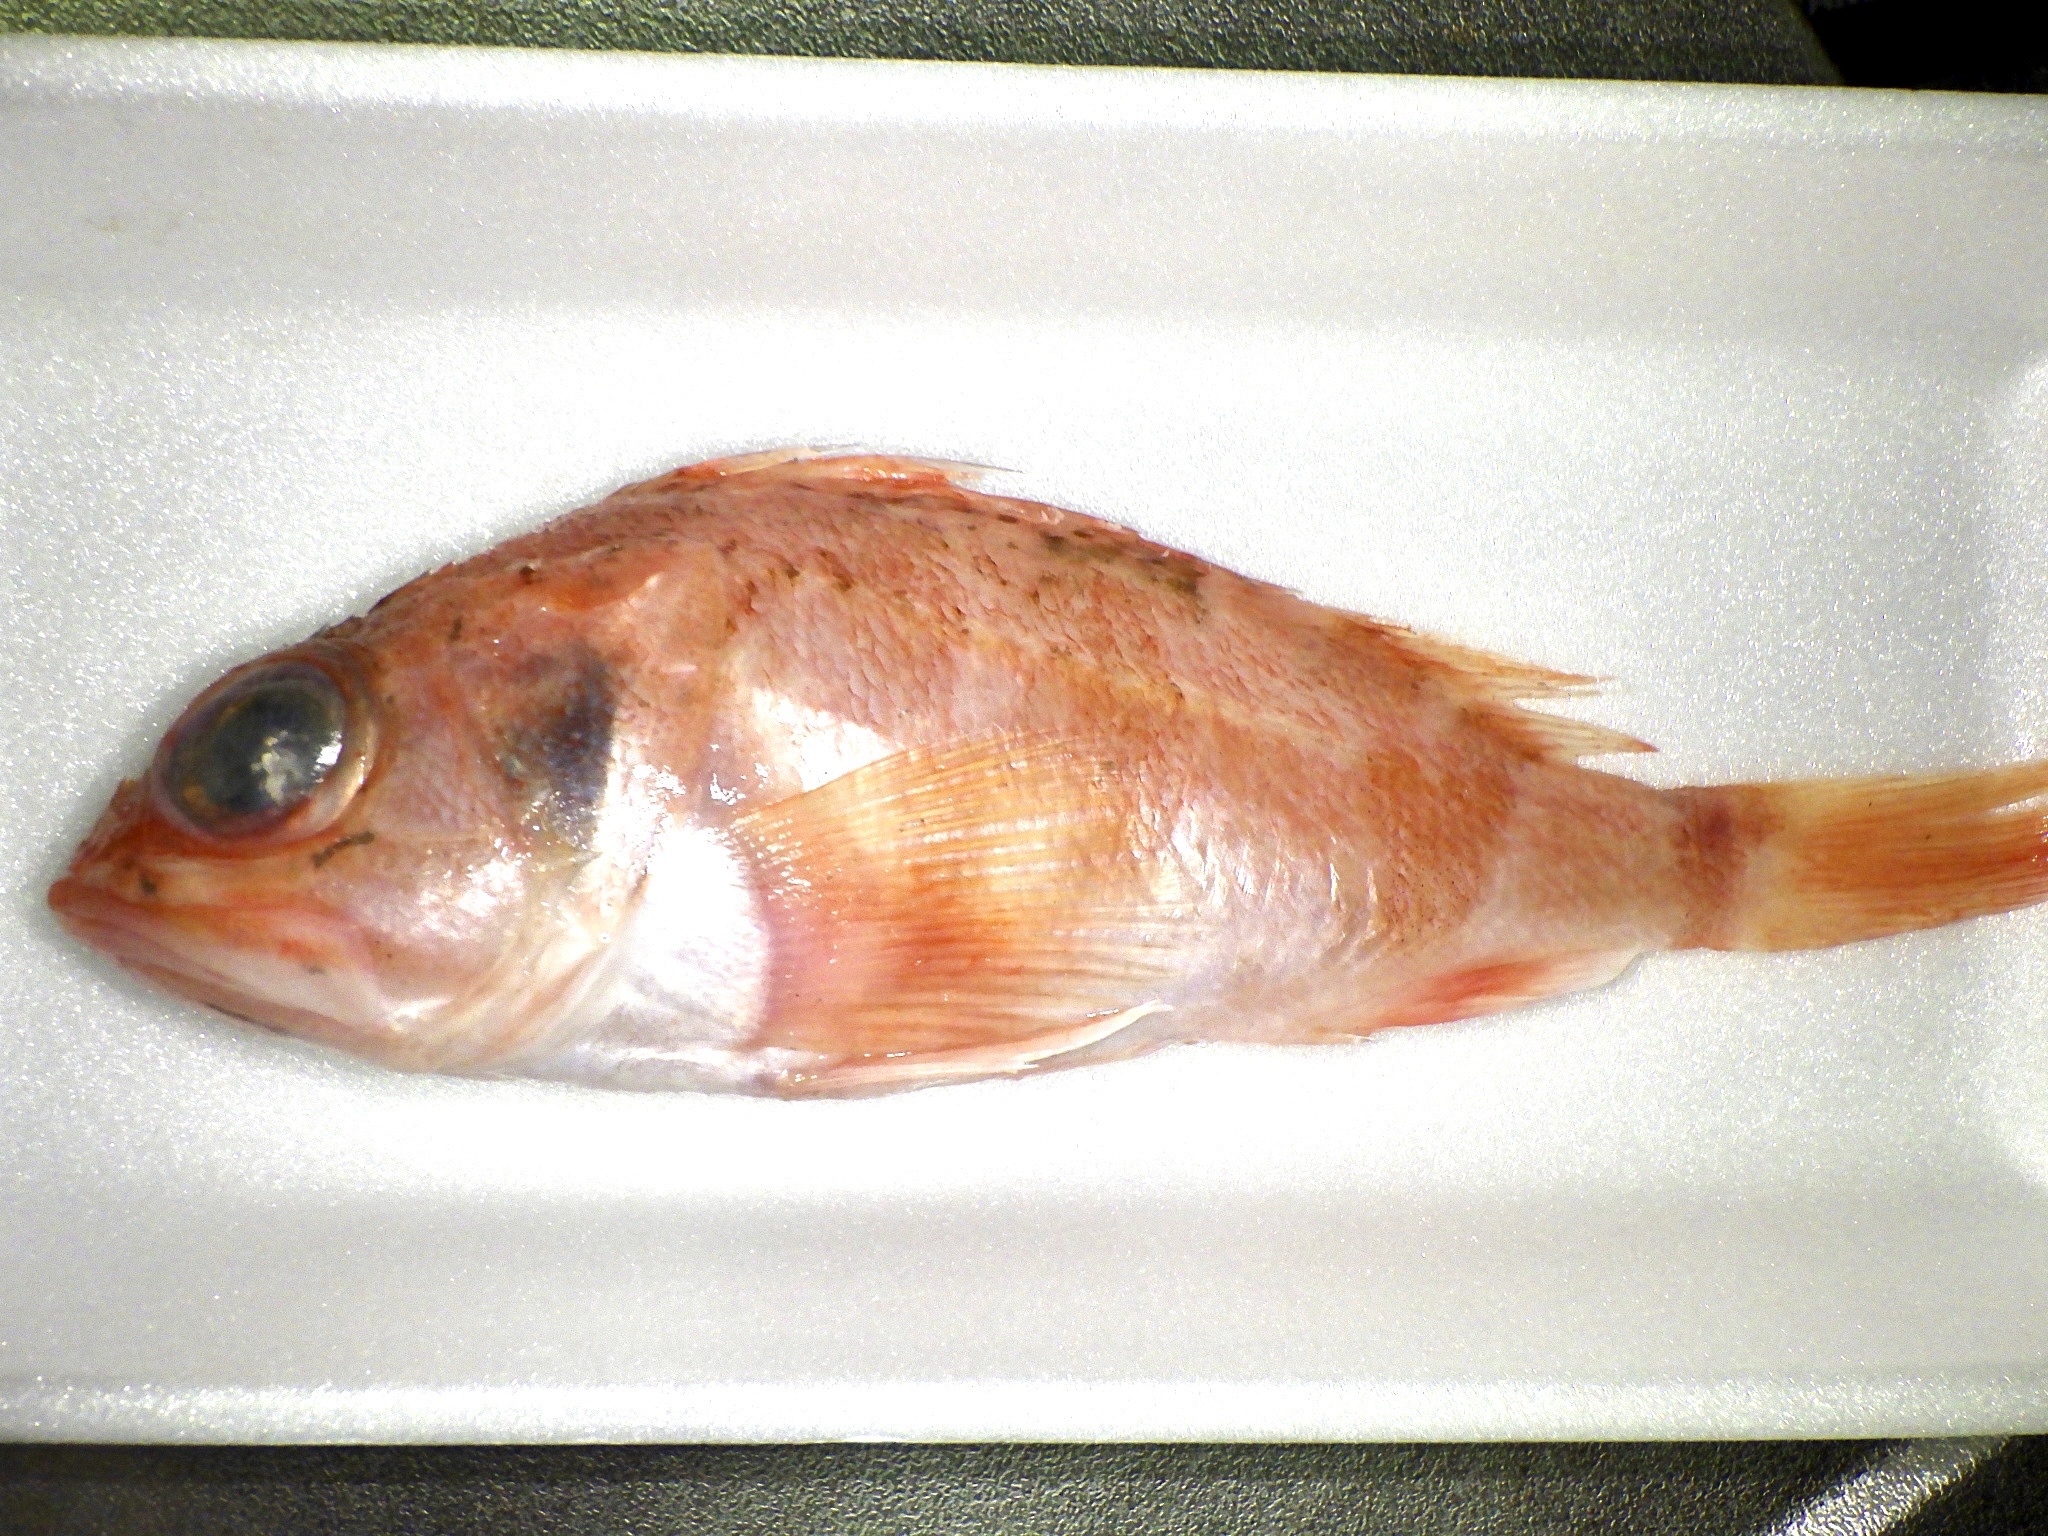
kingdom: Animalia
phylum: Chordata
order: Scorpaeniformes
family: Sebastidae
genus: Helicolenus
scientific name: Helicolenus hilgendorfii
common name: Hilgendorf's saucord
